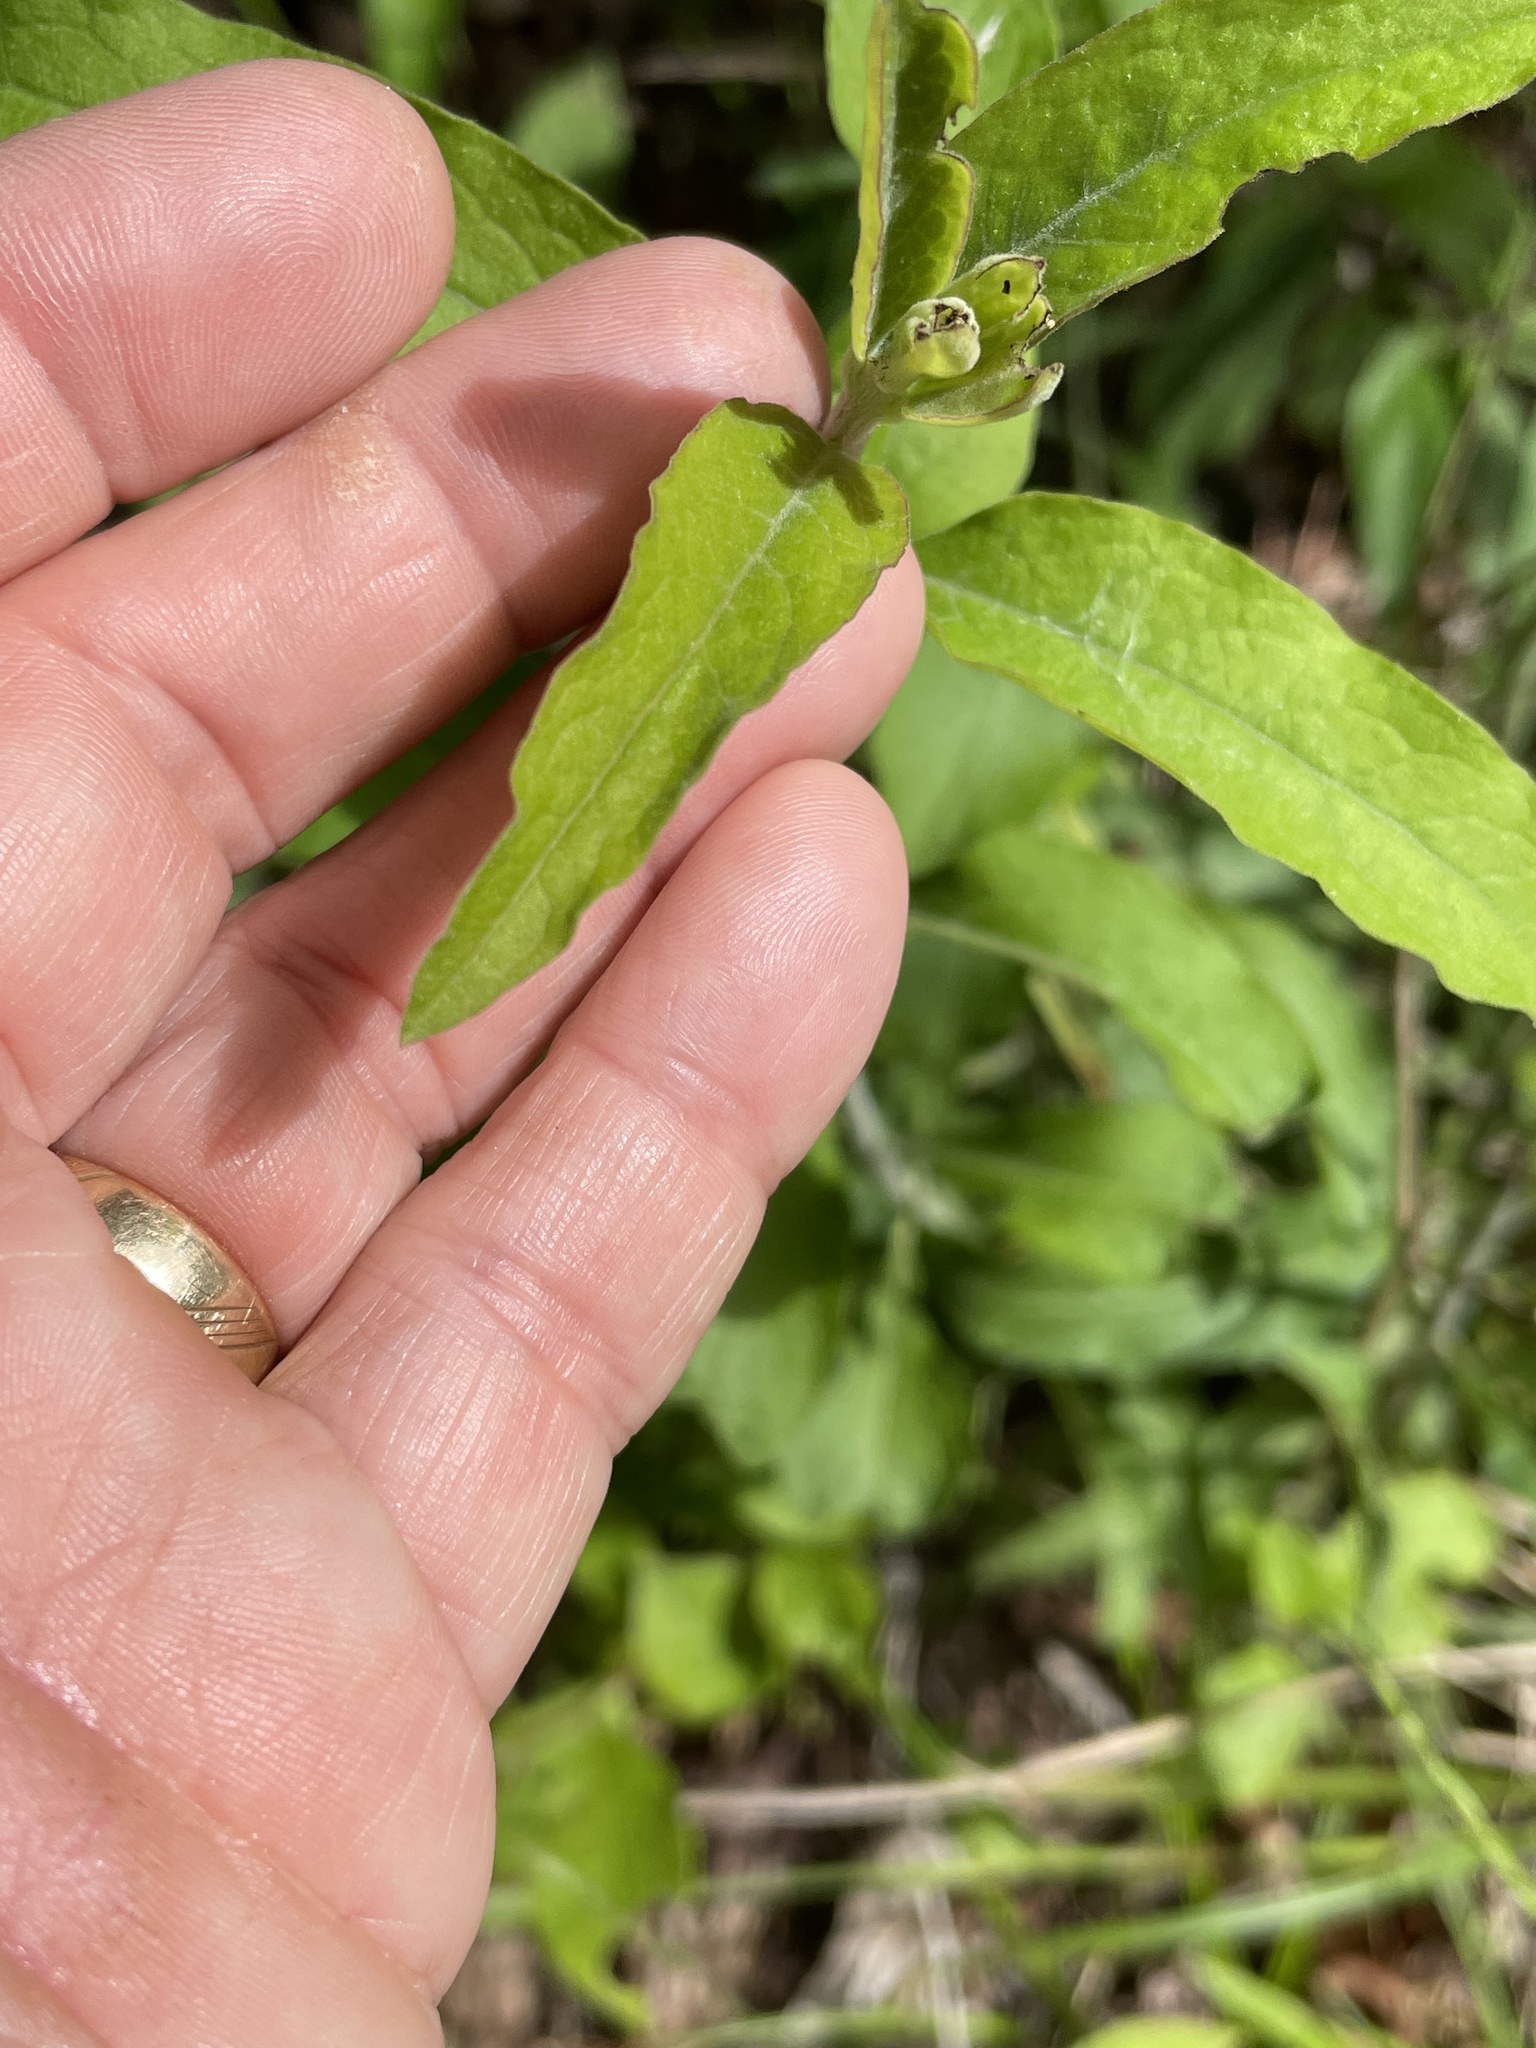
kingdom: Plantae
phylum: Tracheophyta
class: Magnoliopsida
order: Lamiales
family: Orobanchaceae
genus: Aureolaria
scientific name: Aureolaria virginica
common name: Downy false foxglove
